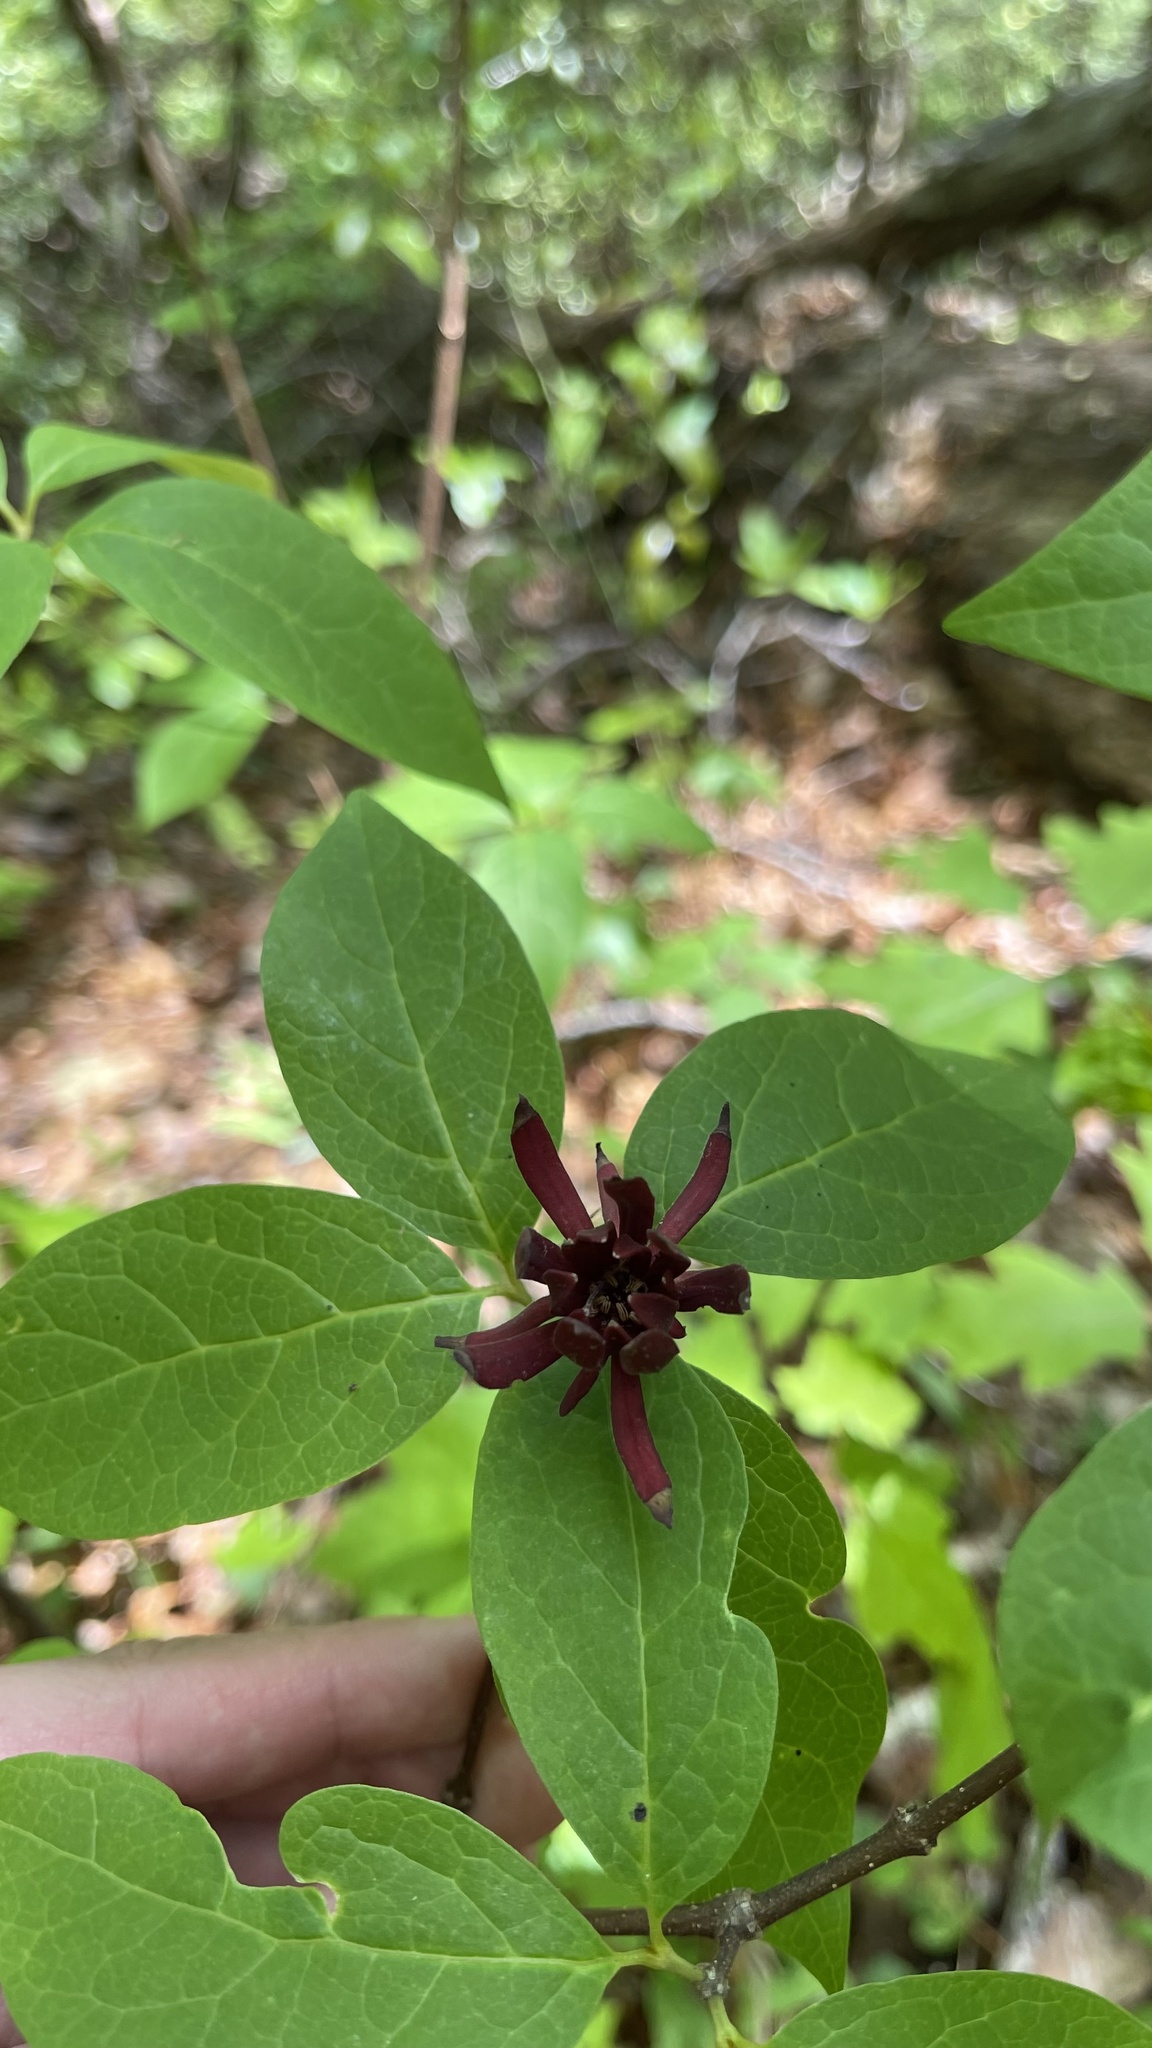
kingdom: Plantae
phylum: Tracheophyta
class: Magnoliopsida
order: Laurales
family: Calycanthaceae
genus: Calycanthus
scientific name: Calycanthus floridus
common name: Carolina-allspice
